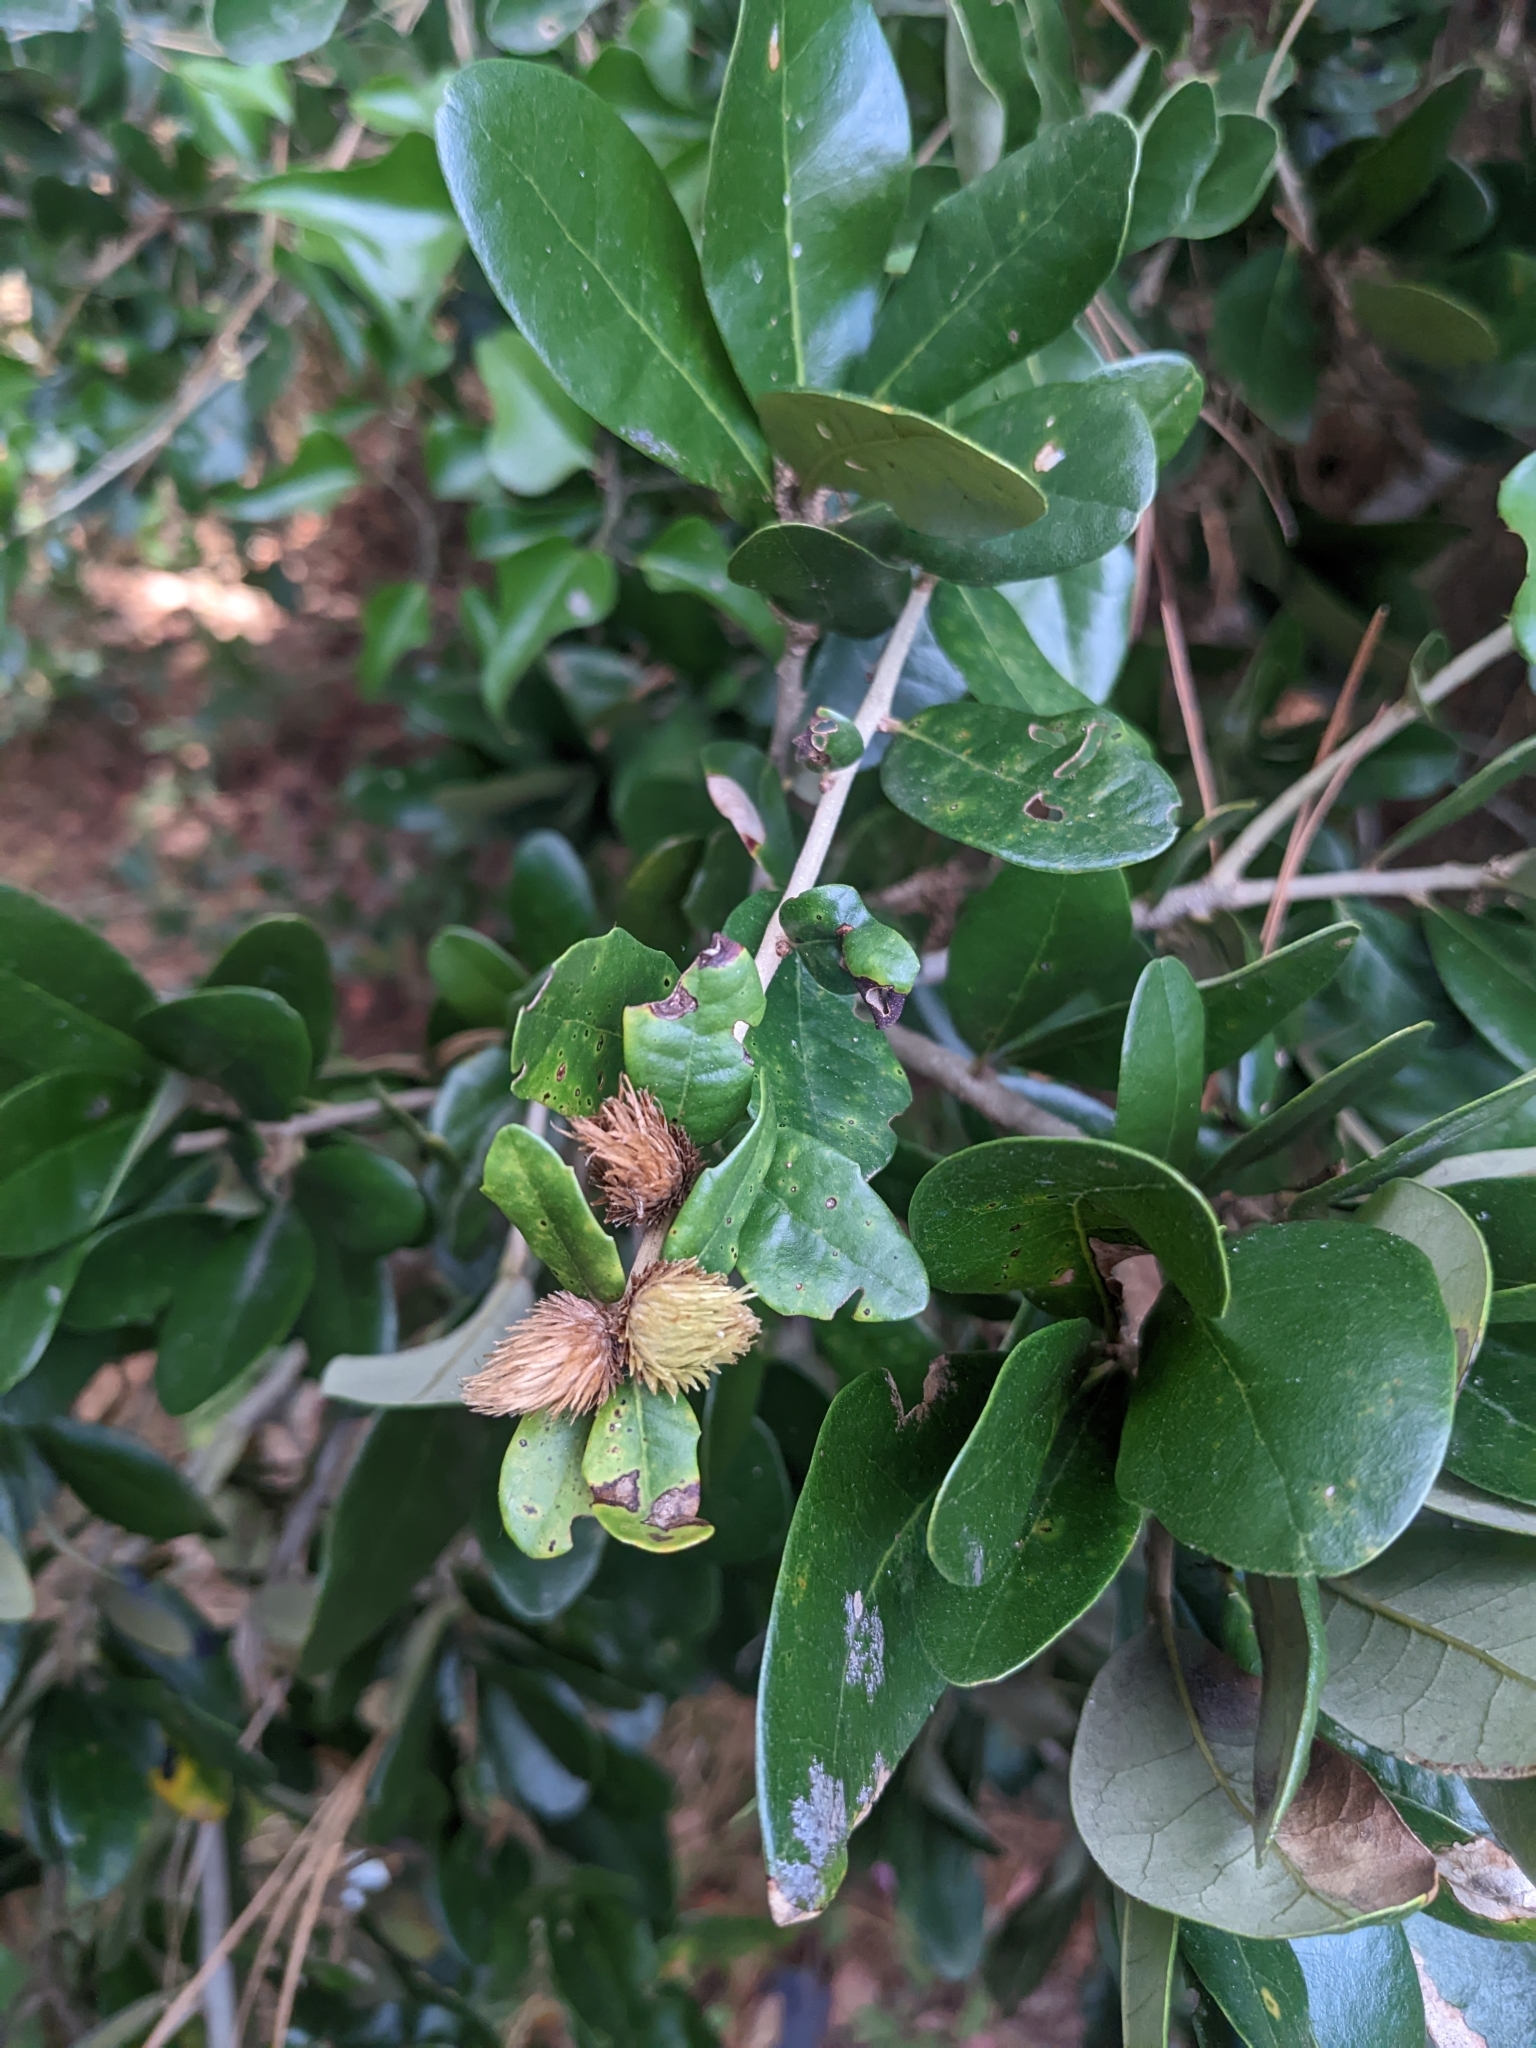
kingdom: Animalia
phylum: Arthropoda
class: Insecta
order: Hymenoptera
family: Cynipidae
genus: Andricus
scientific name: Andricus quercusfoliatus
